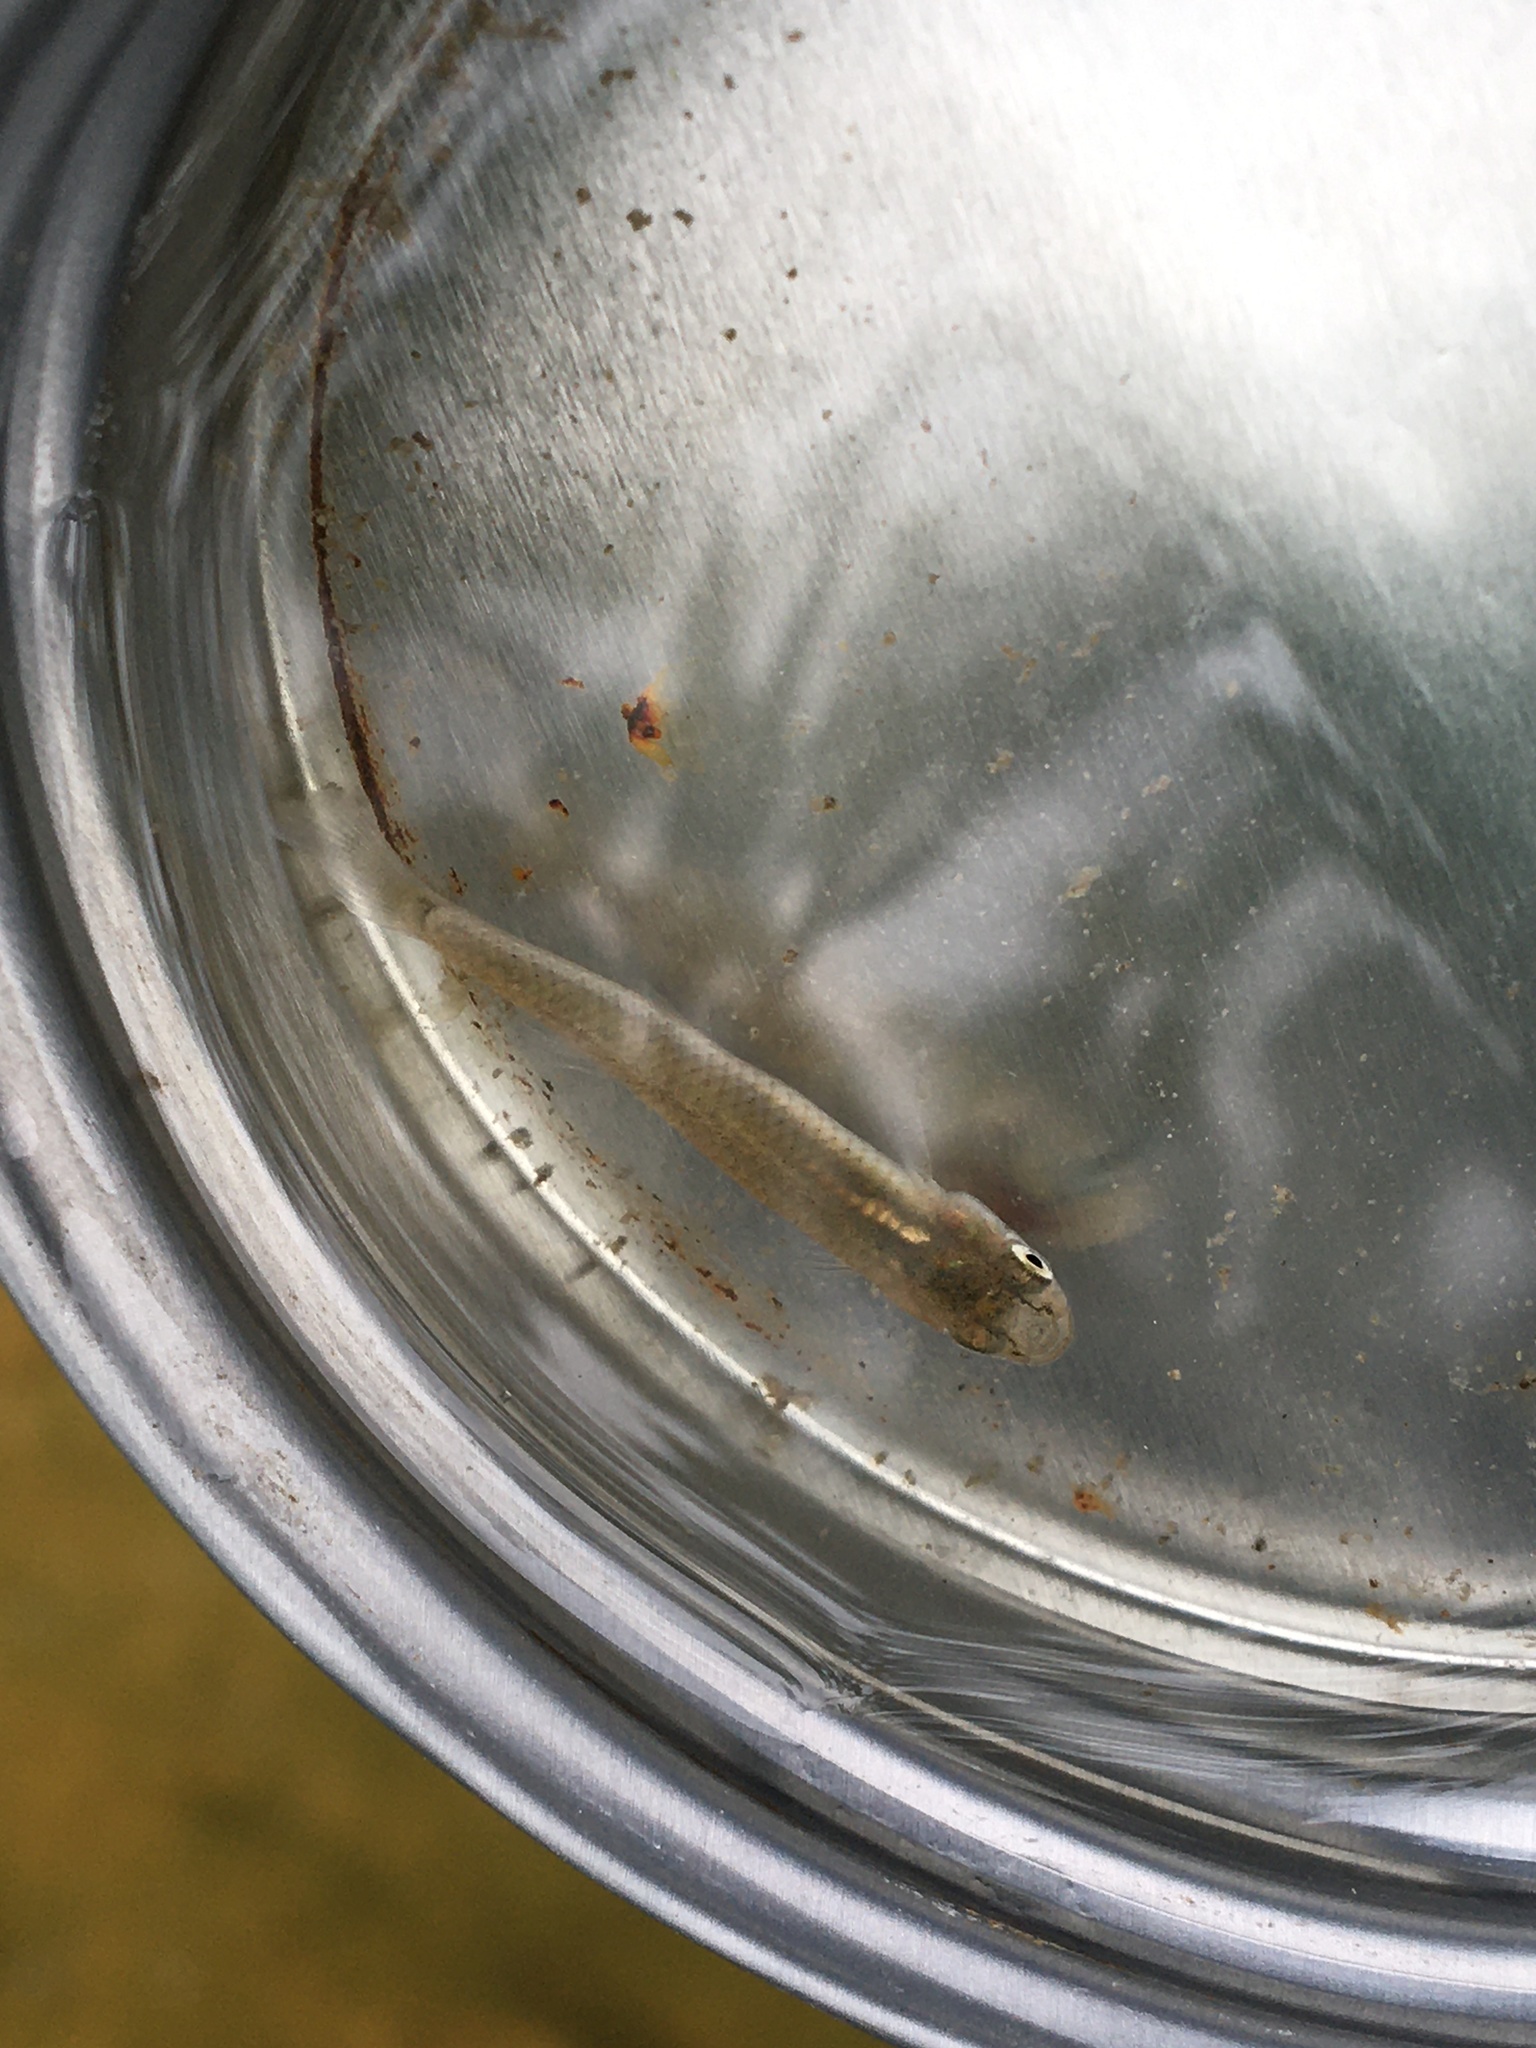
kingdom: Animalia
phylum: Chordata
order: Cyprinodontiformes
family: Poeciliidae
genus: Gambusia
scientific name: Gambusia affinis
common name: Mosquitofish
